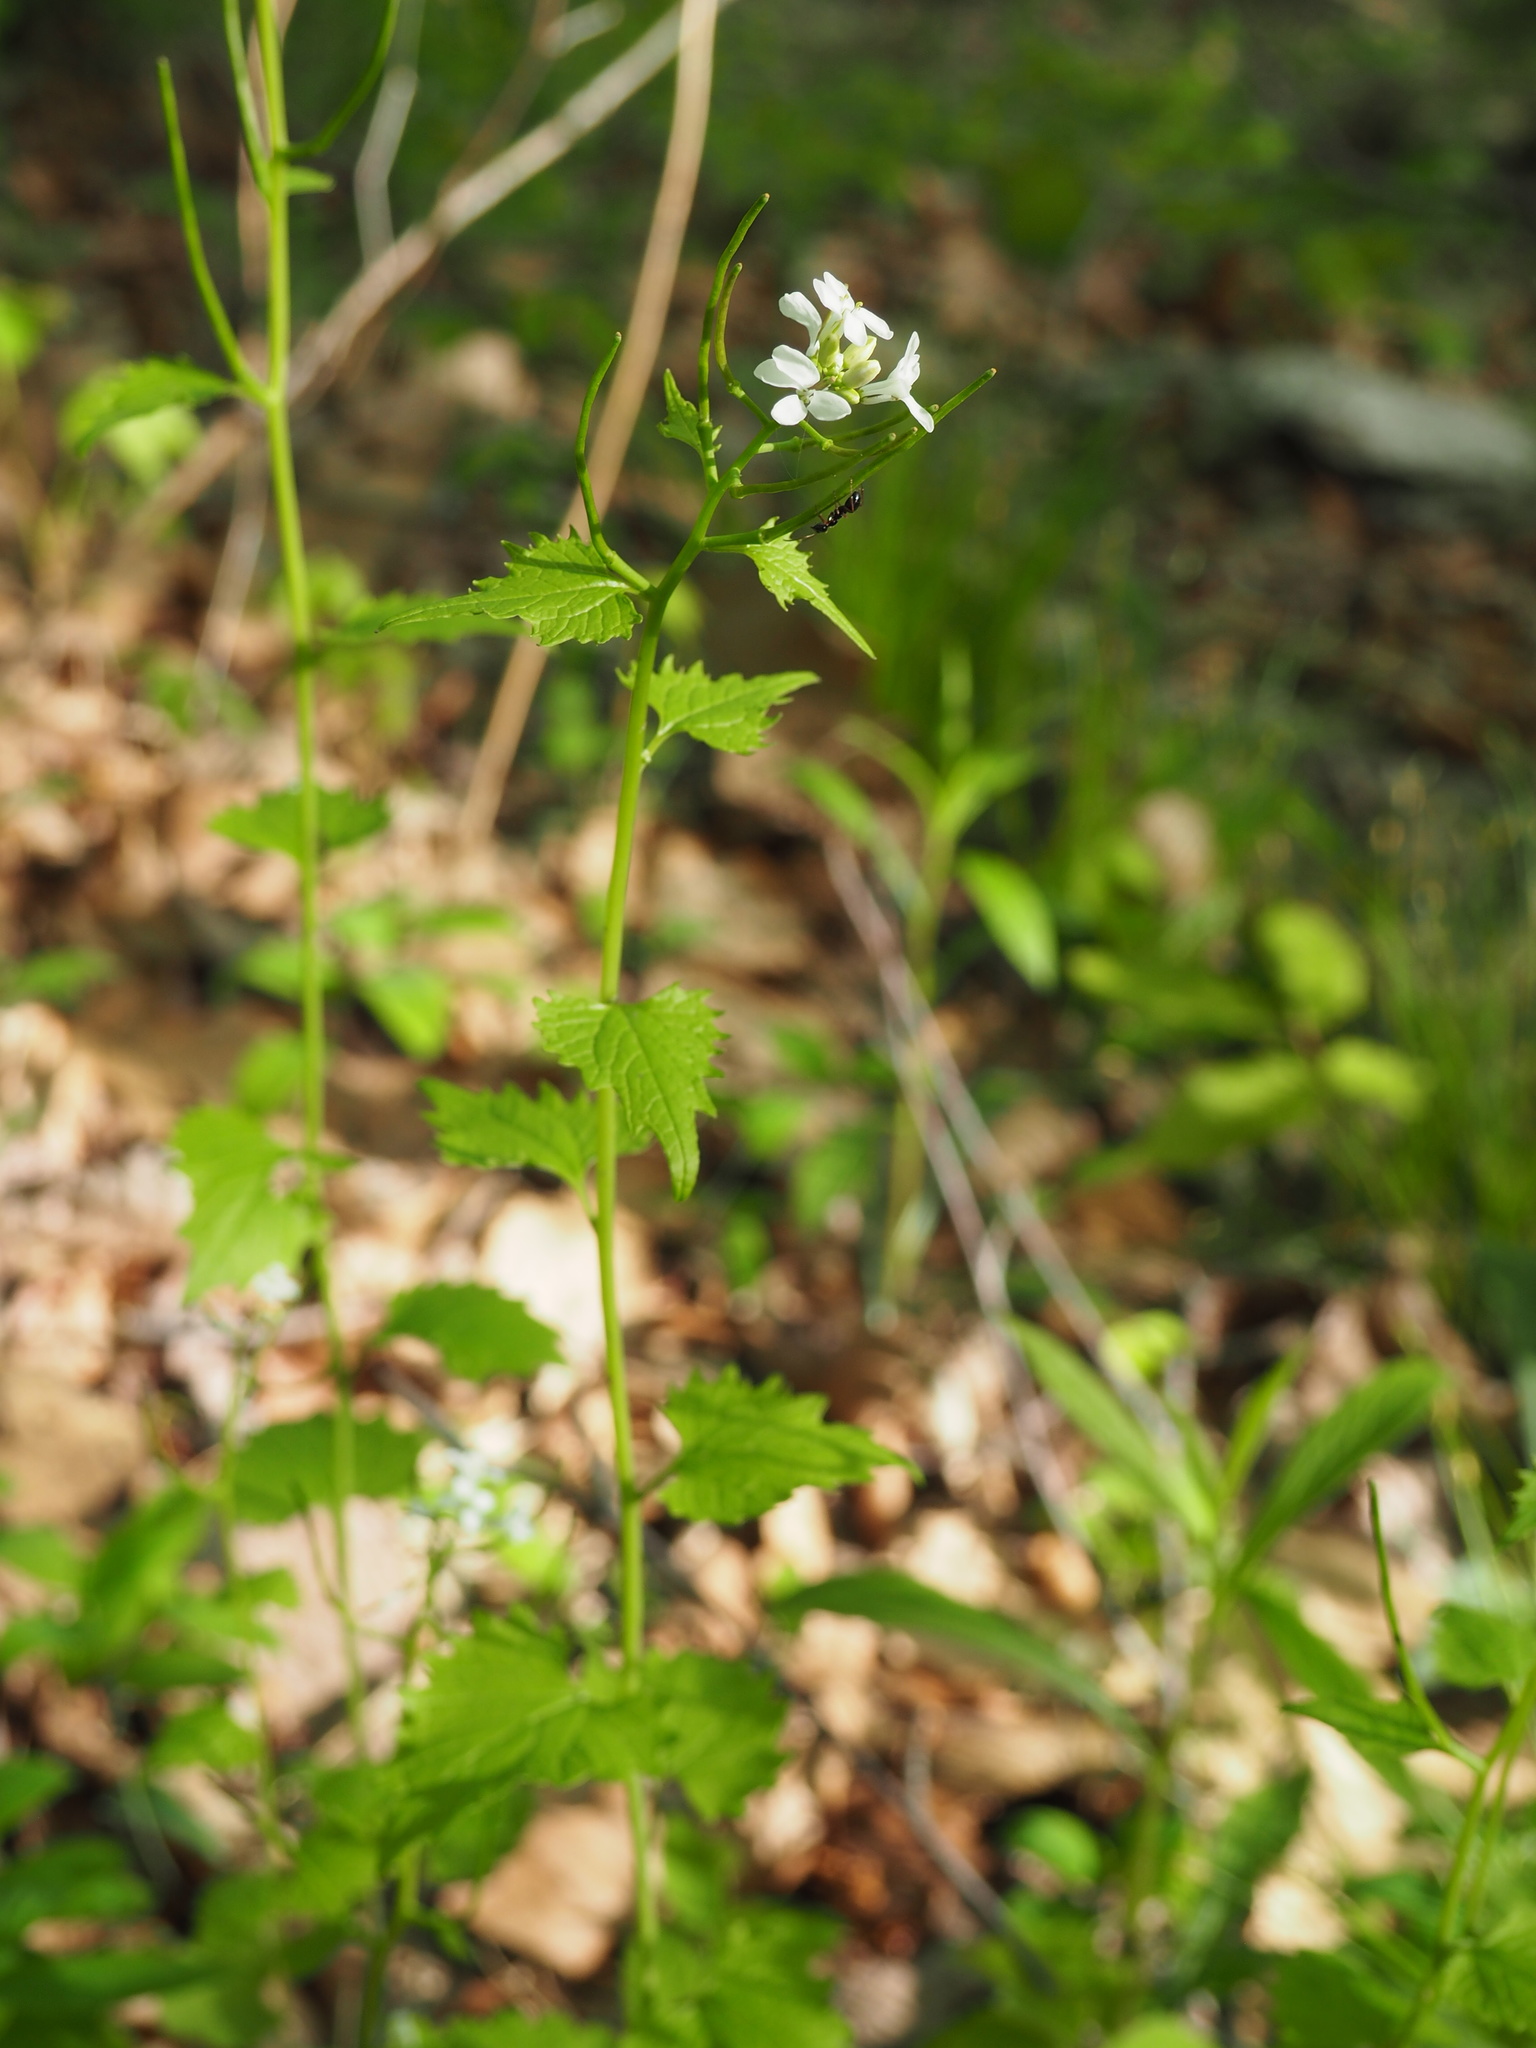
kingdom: Plantae
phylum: Tracheophyta
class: Magnoliopsida
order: Brassicales
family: Brassicaceae
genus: Alliaria
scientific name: Alliaria petiolata
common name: Garlic mustard
